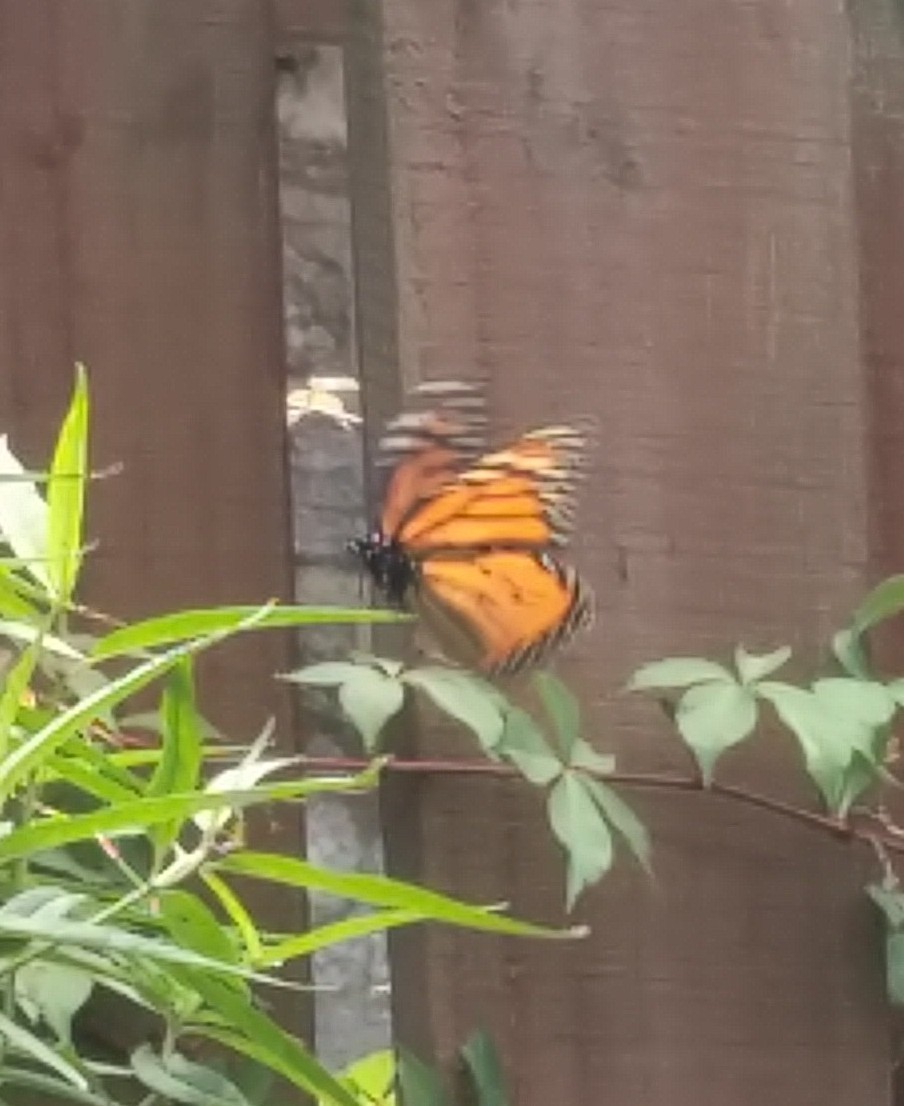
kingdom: Animalia
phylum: Arthropoda
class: Insecta
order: Lepidoptera
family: Nymphalidae
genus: Danaus
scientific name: Danaus plexippus
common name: Monarch
